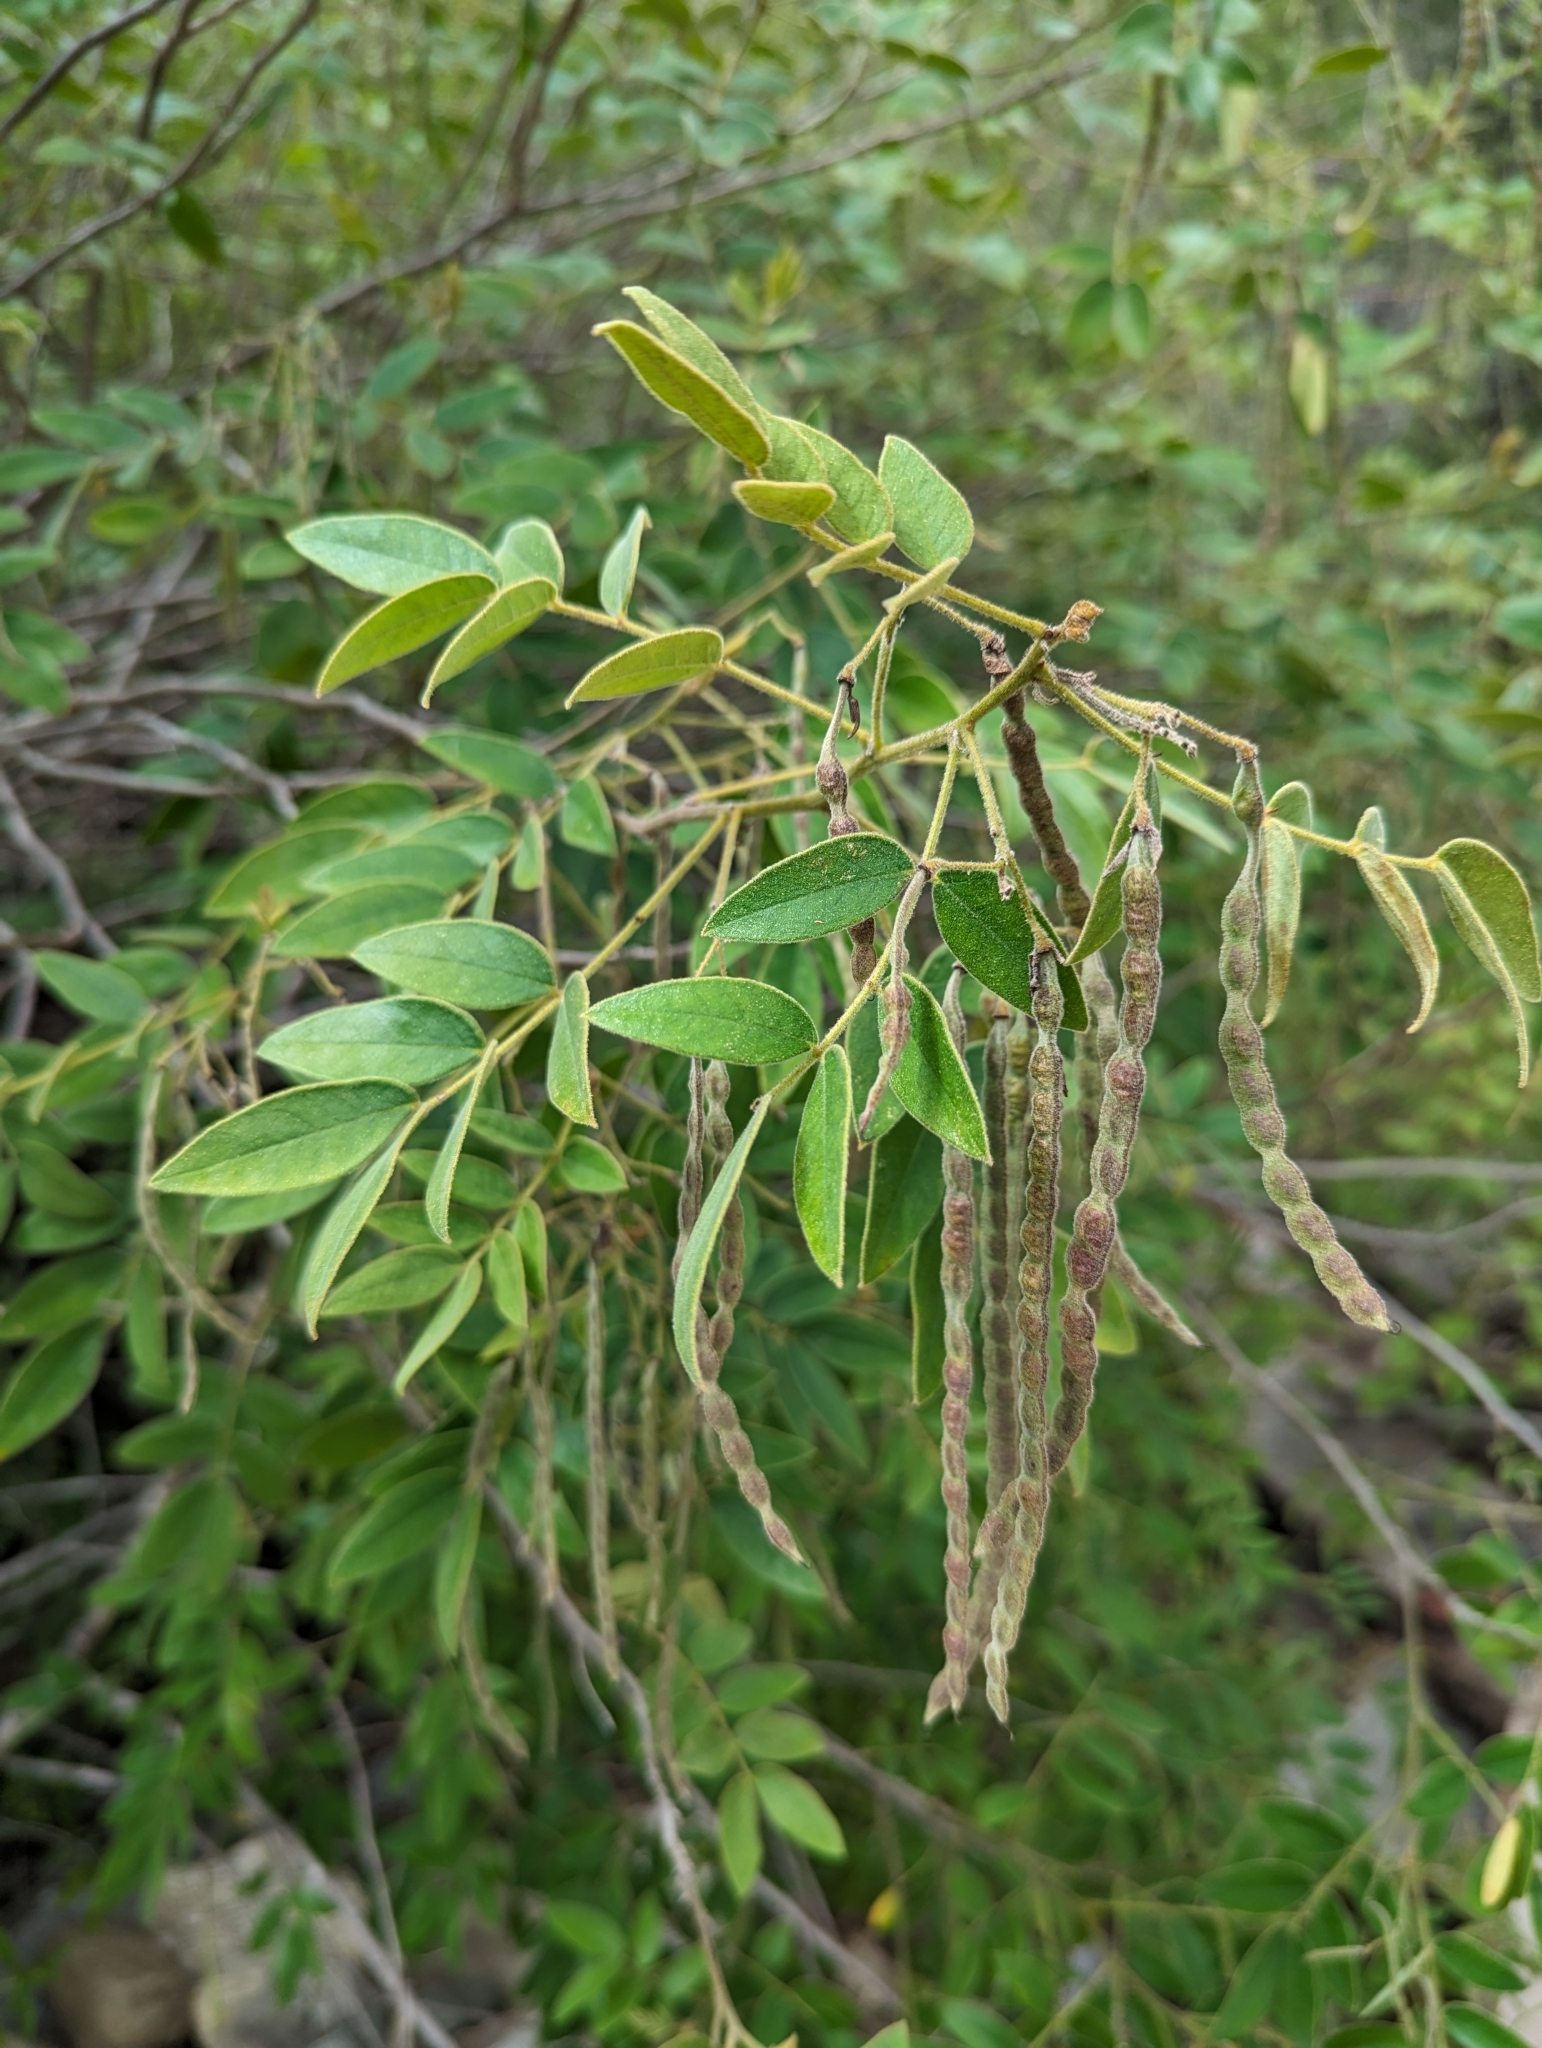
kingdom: Plantae
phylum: Tracheophyta
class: Magnoliopsida
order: Fabales
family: Fabaceae
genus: Senna
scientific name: Senna villosa
